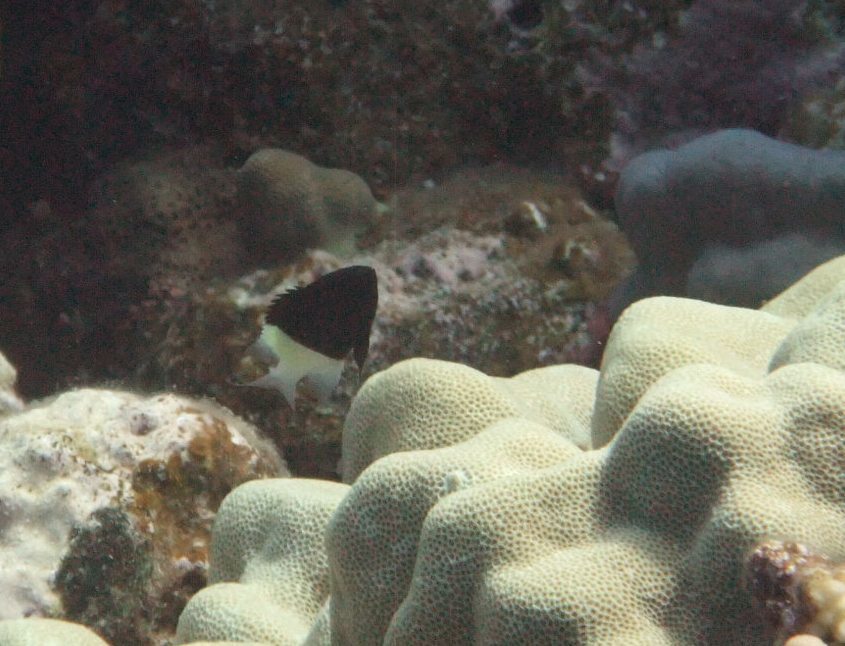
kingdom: Animalia
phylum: Chordata
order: Perciformes
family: Pomacentridae
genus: Chromis
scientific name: Chromis dimidiata
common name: Half-and-half chromis
